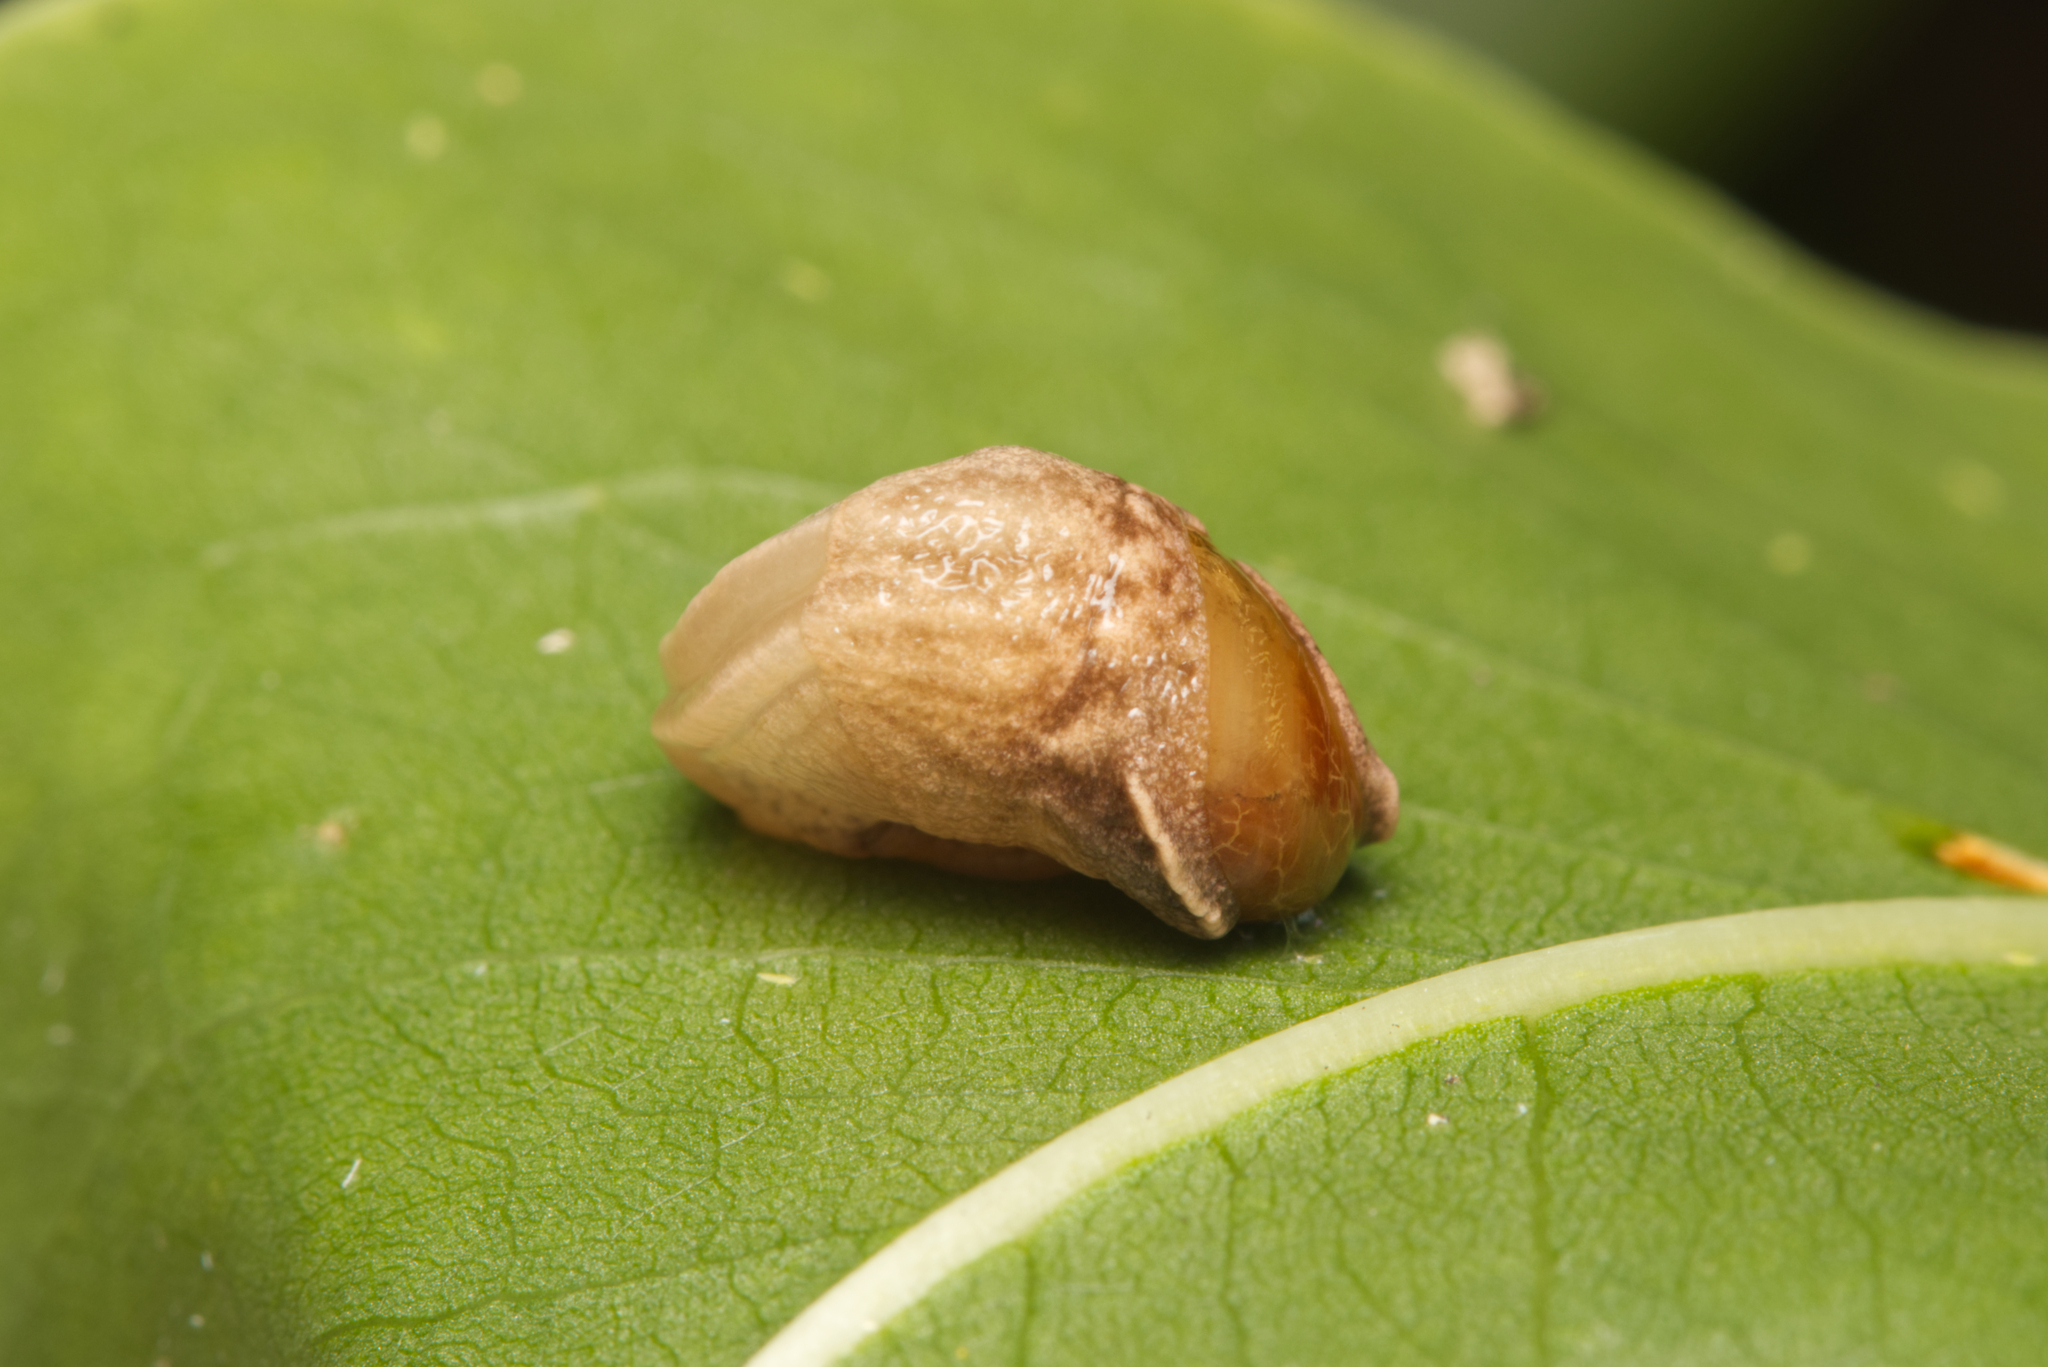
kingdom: Animalia
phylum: Mollusca
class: Gastropoda
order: Stylommatophora
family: Helicarionidae
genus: Ubiquitarion
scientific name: Ubiquitarion iridis
